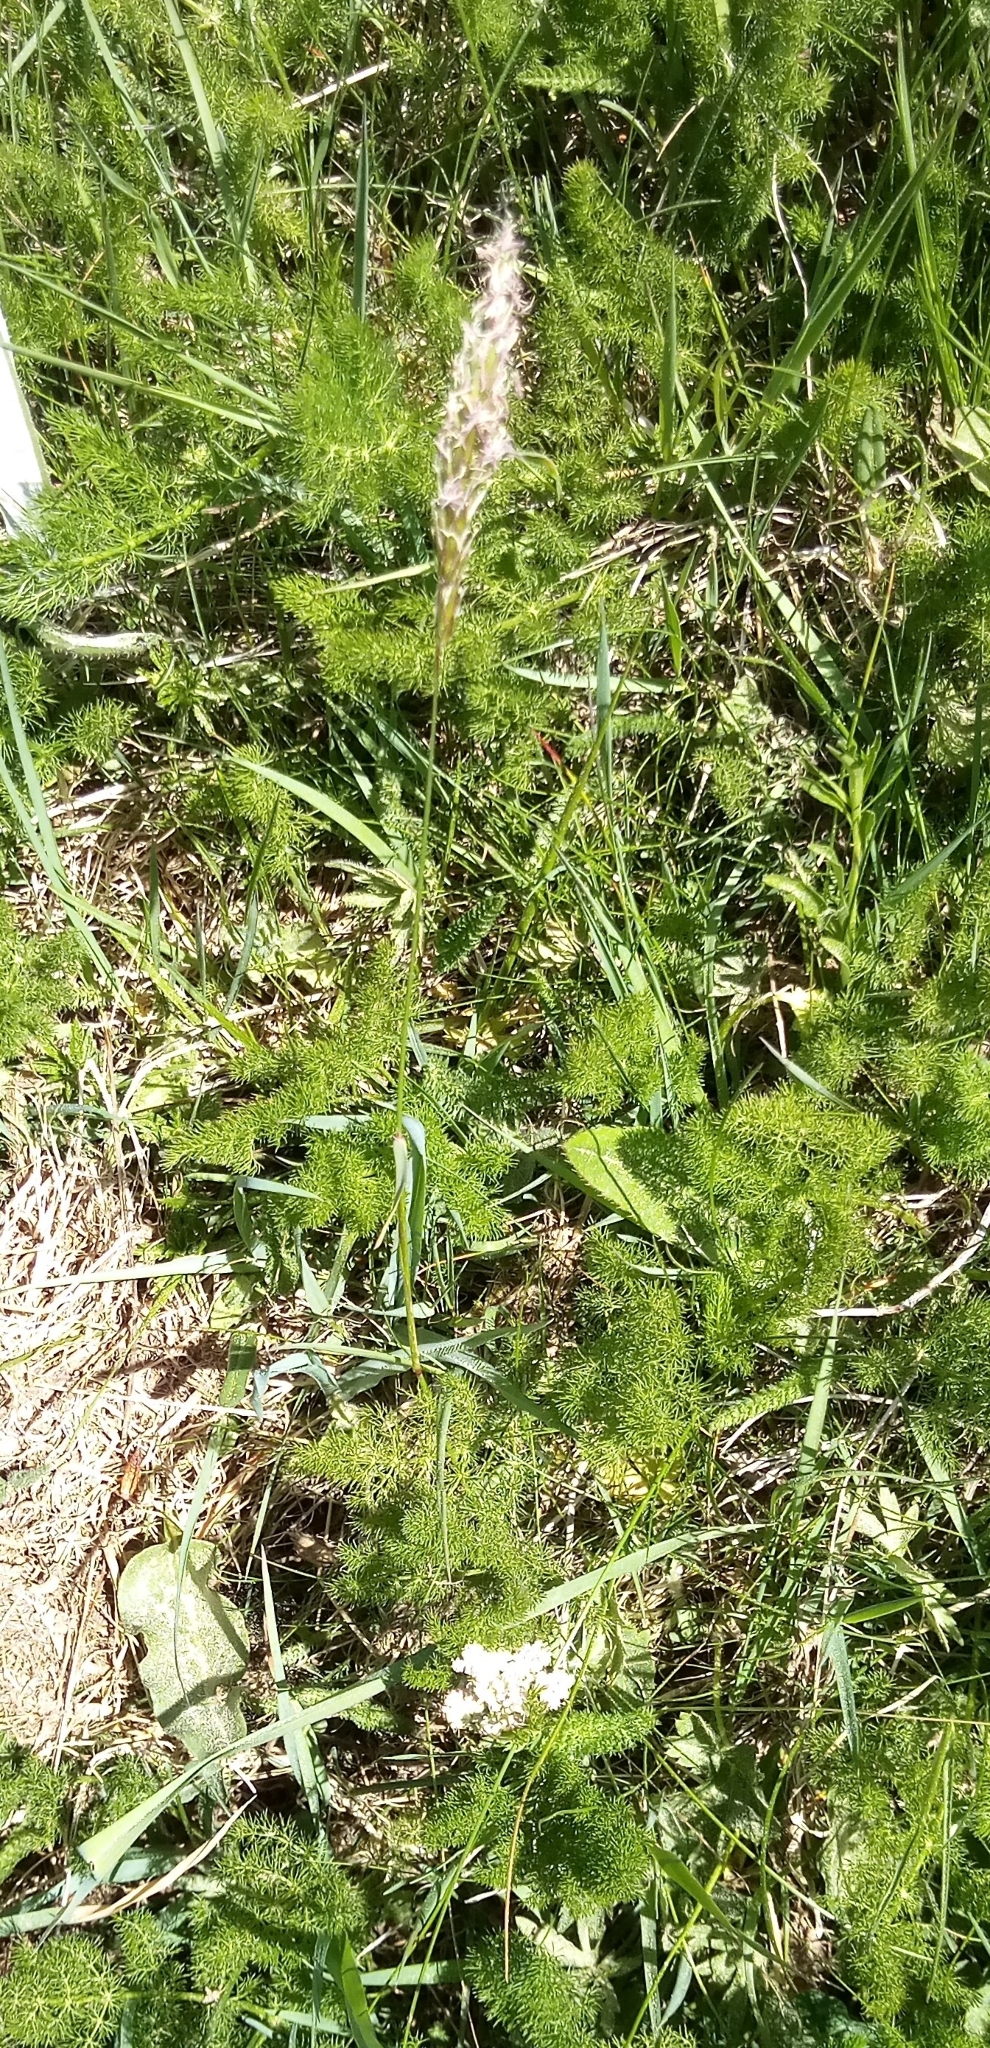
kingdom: Plantae
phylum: Tracheophyta
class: Liliopsida
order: Poales
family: Poaceae
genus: Anthoxanthum
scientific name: Anthoxanthum odoratum
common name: Sweet vernalgrass
